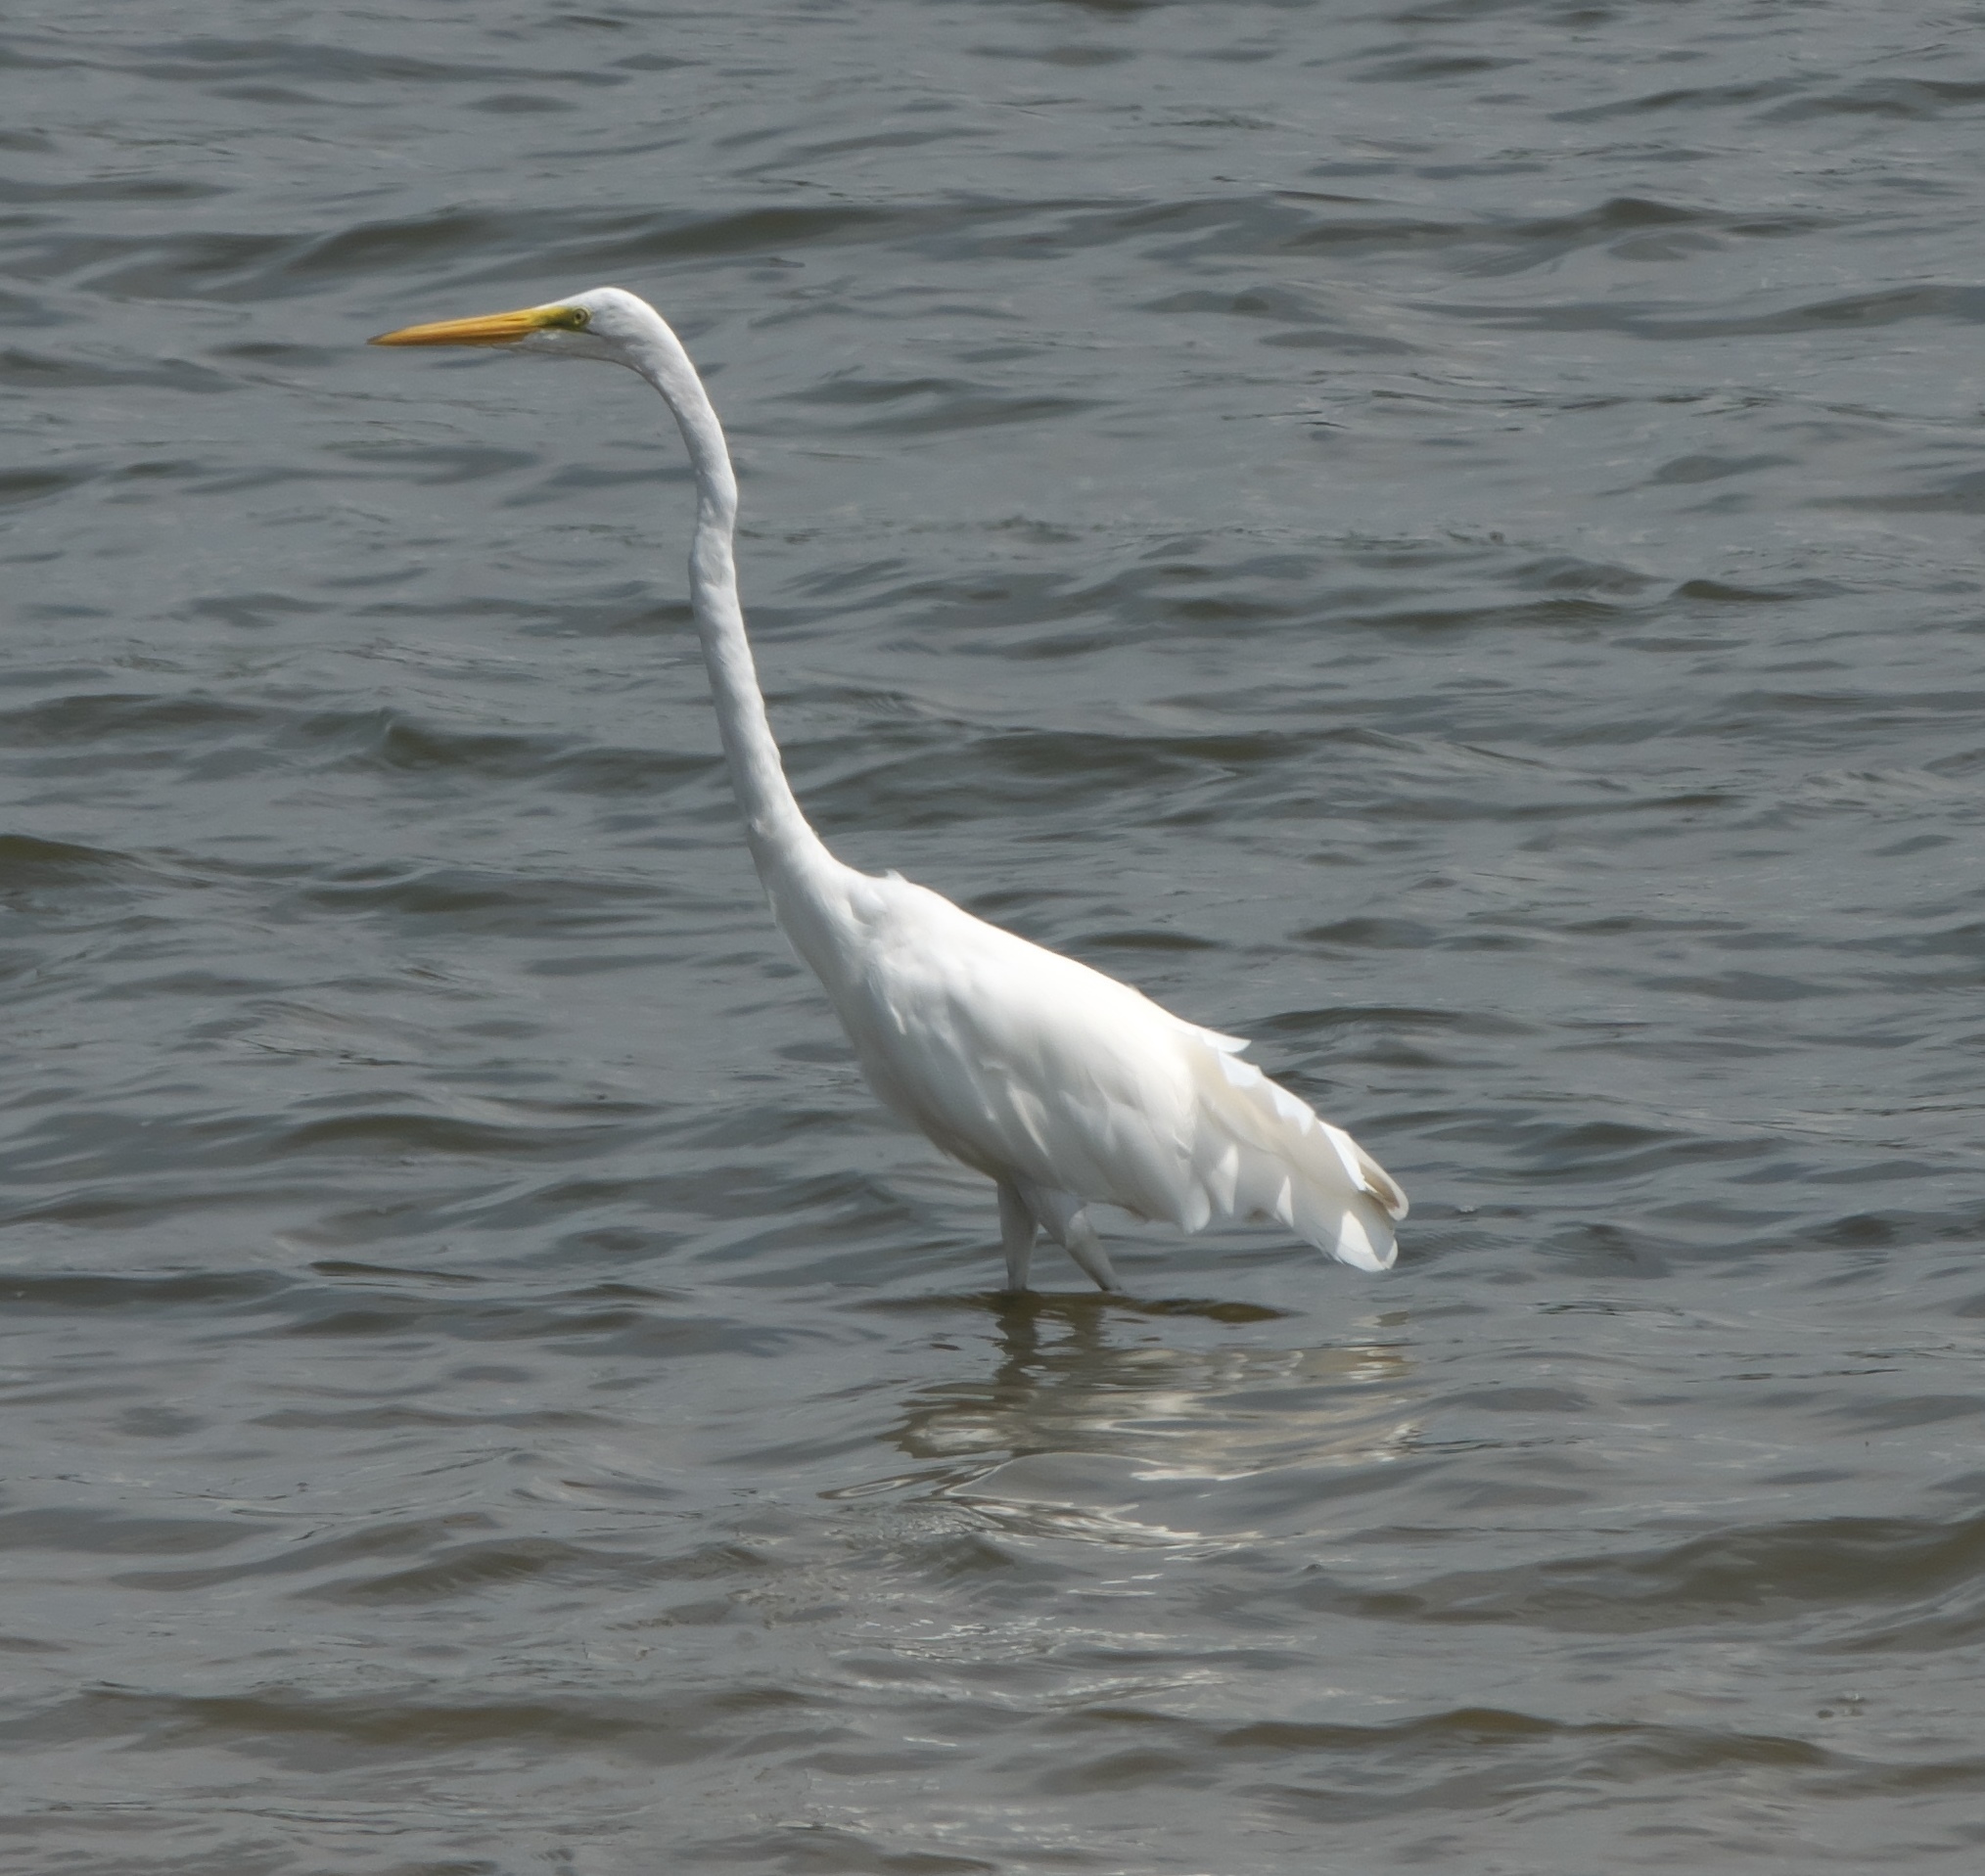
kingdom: Animalia
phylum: Chordata
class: Aves
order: Pelecaniformes
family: Ardeidae
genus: Ardea
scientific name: Ardea alba
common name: Great egret
